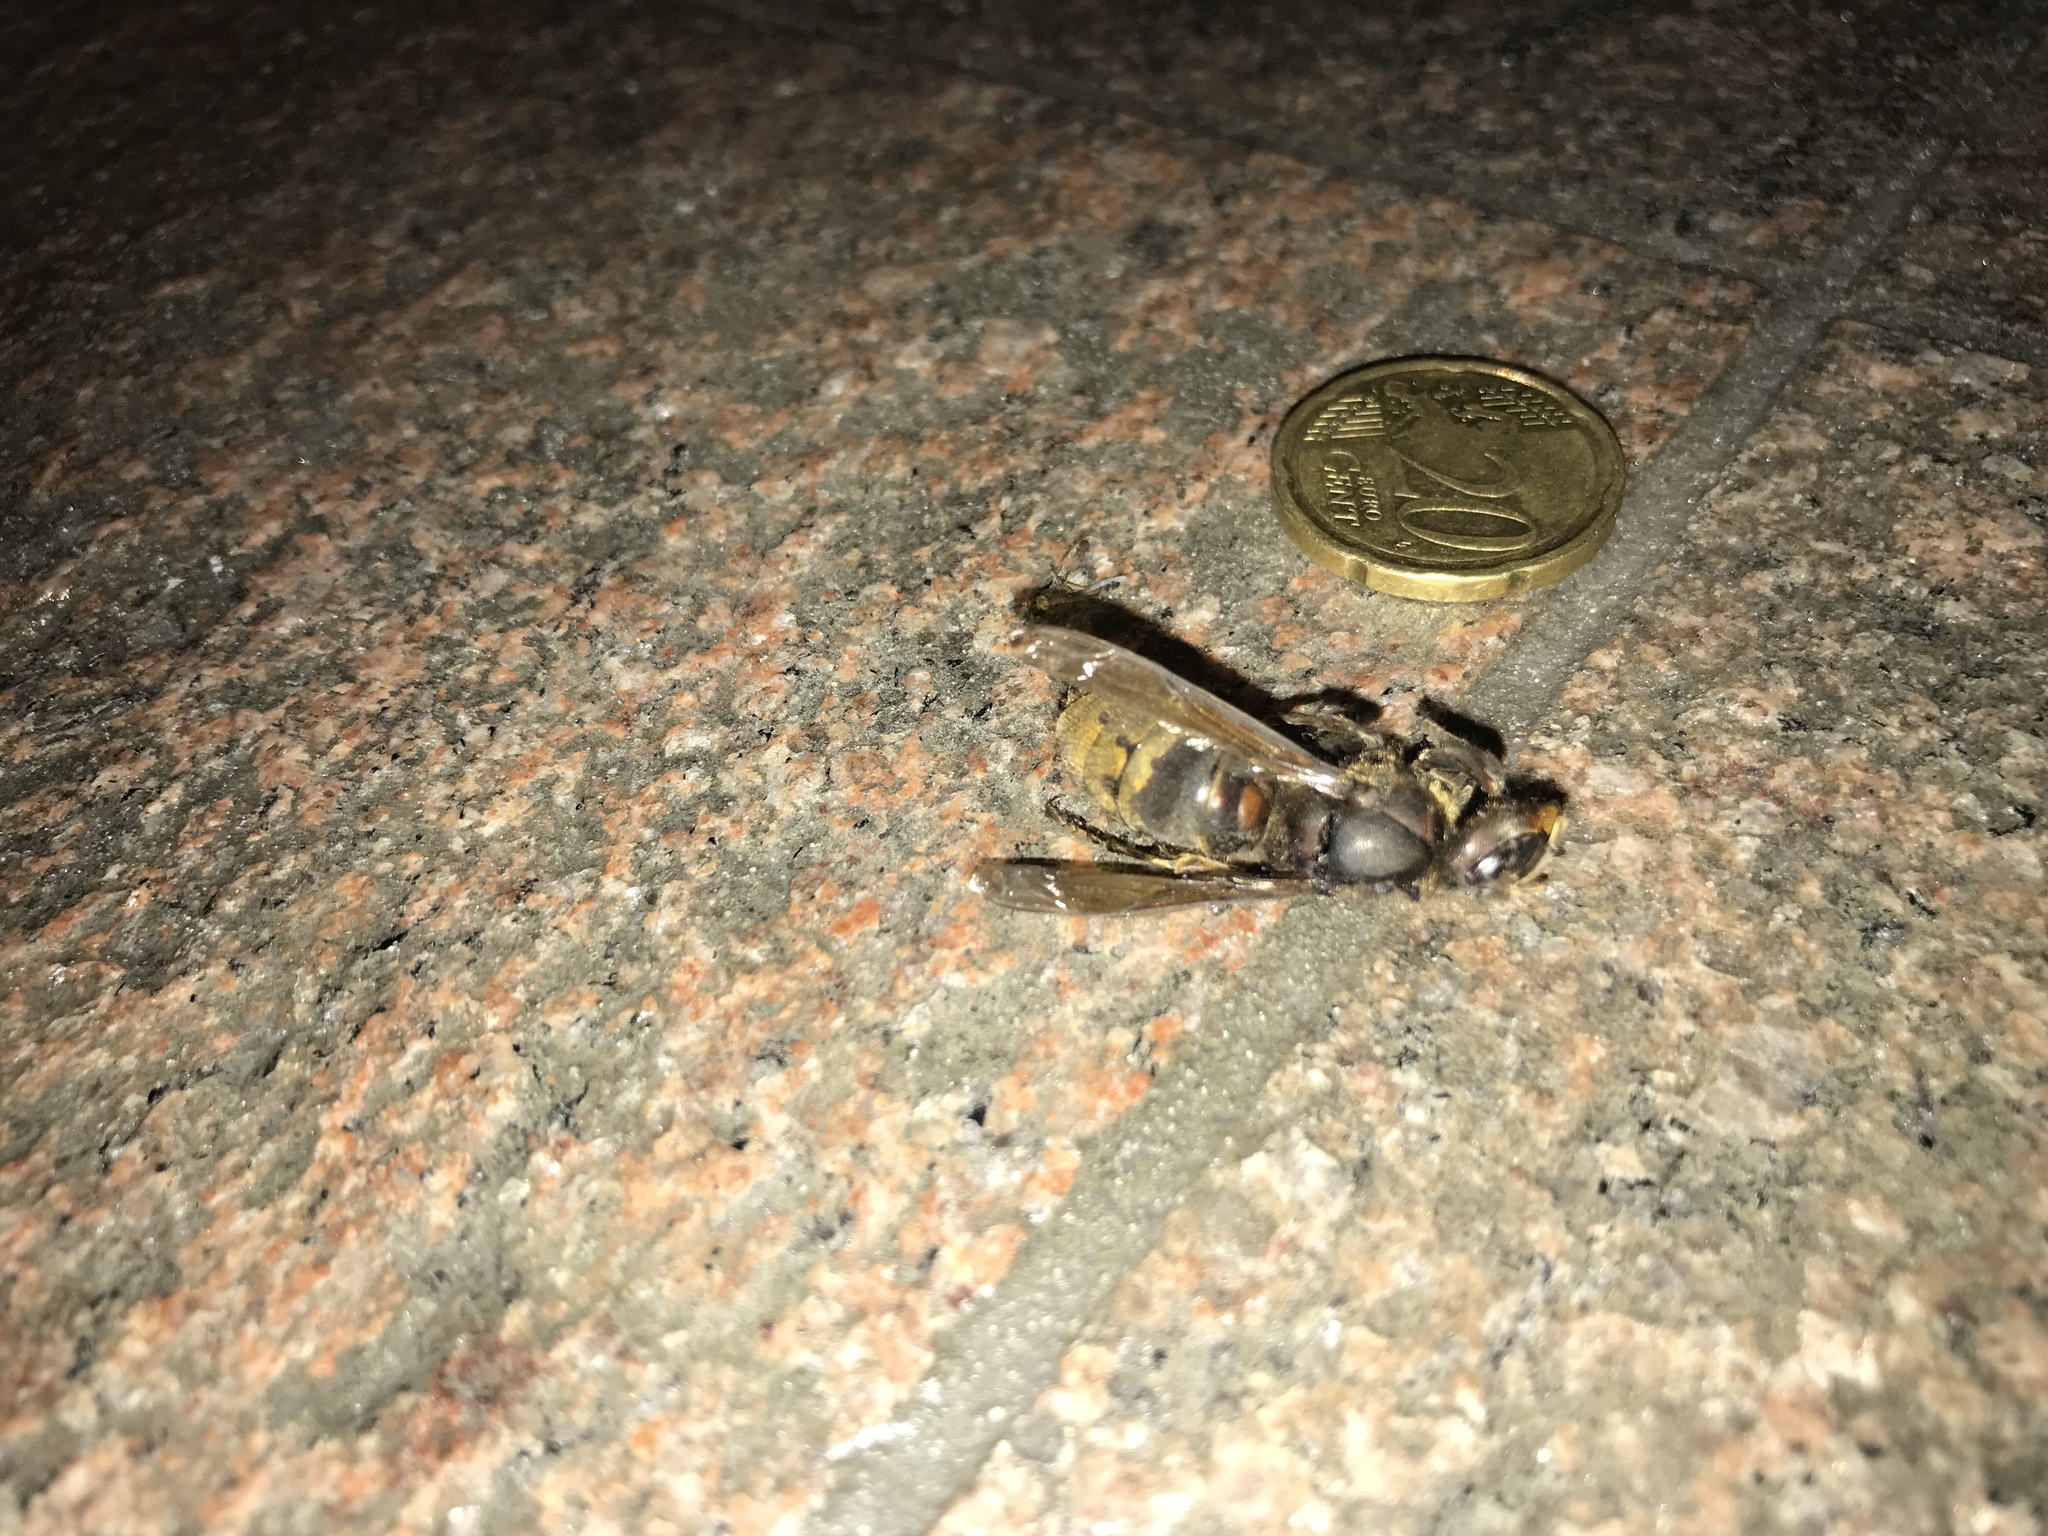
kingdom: Animalia
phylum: Arthropoda
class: Insecta
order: Hymenoptera
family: Vespidae
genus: Vespa
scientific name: Vespa crabro
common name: Hornet
